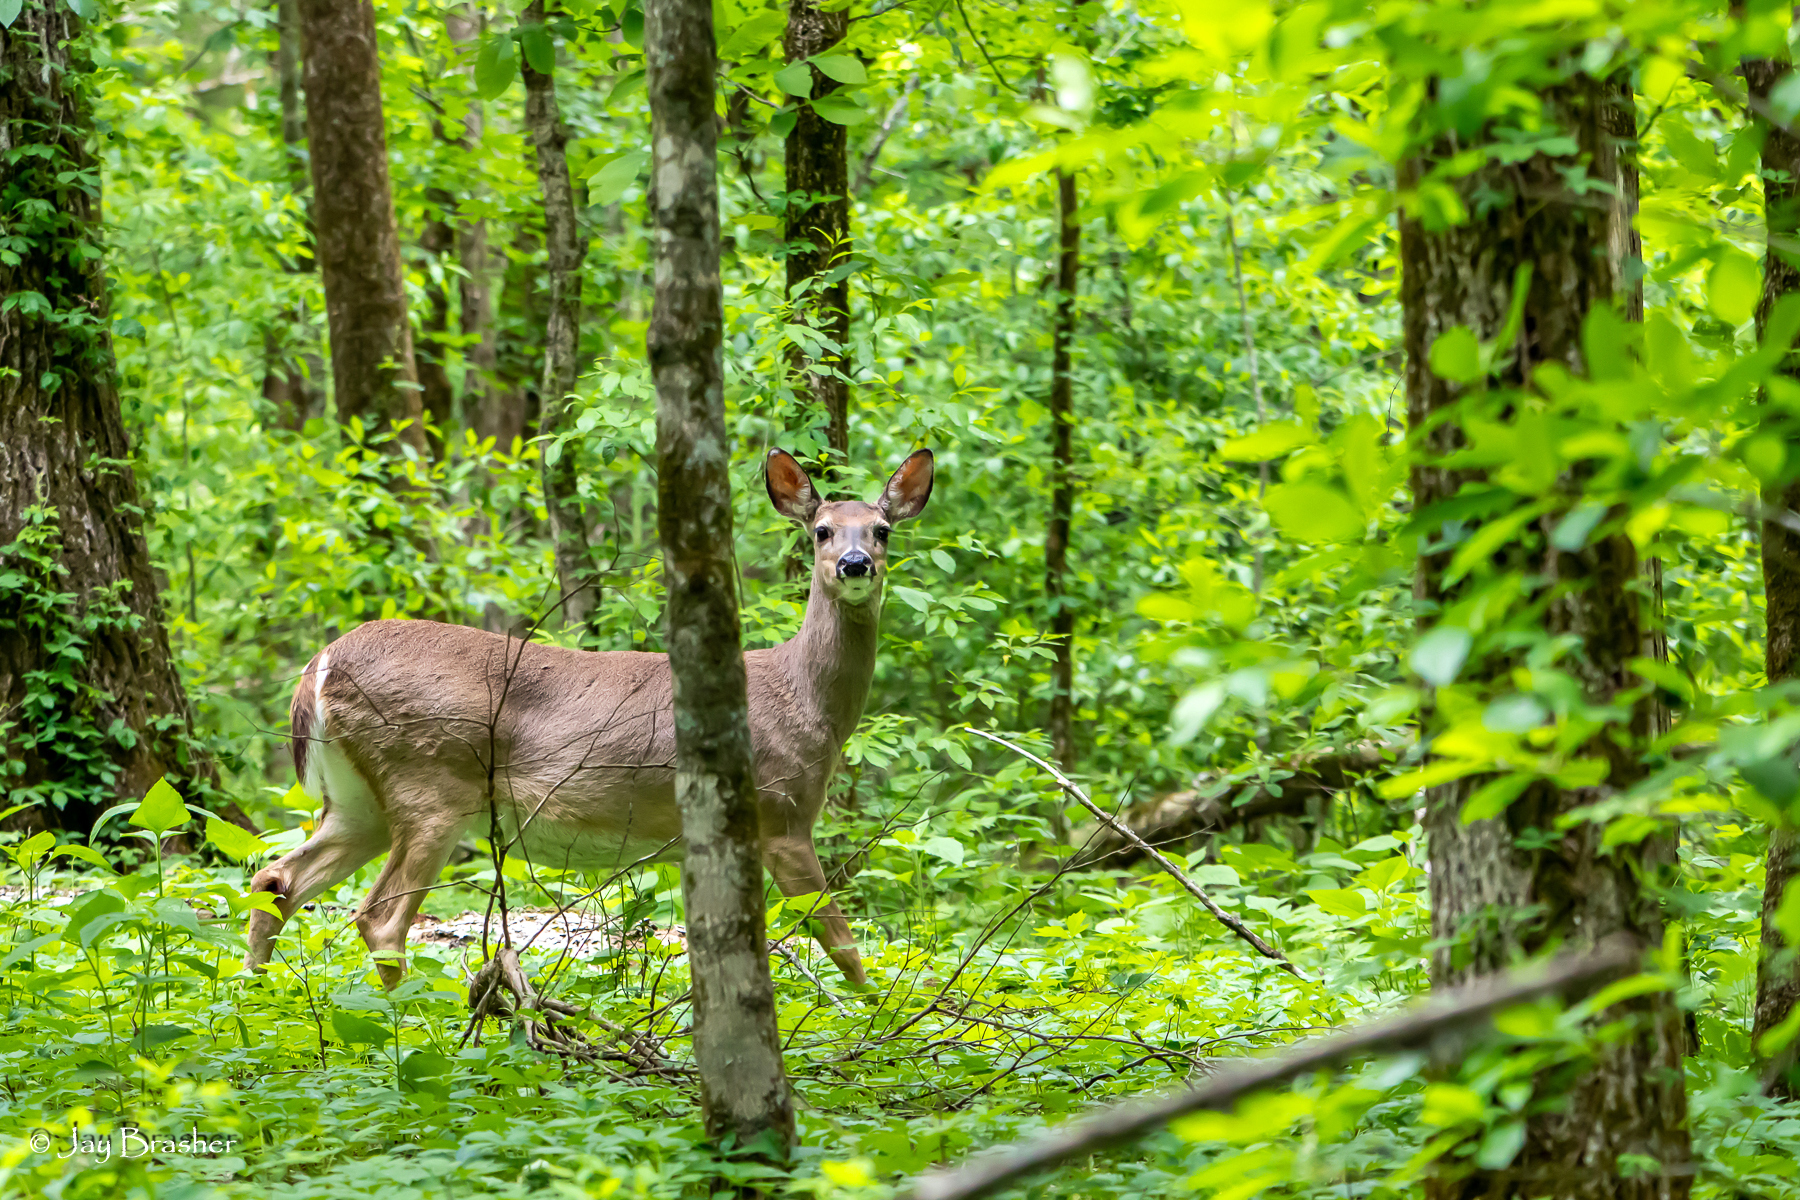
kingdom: Animalia
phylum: Chordata
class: Mammalia
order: Artiodactyla
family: Cervidae
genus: Odocoileus
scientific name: Odocoileus virginianus
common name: White-tailed deer
